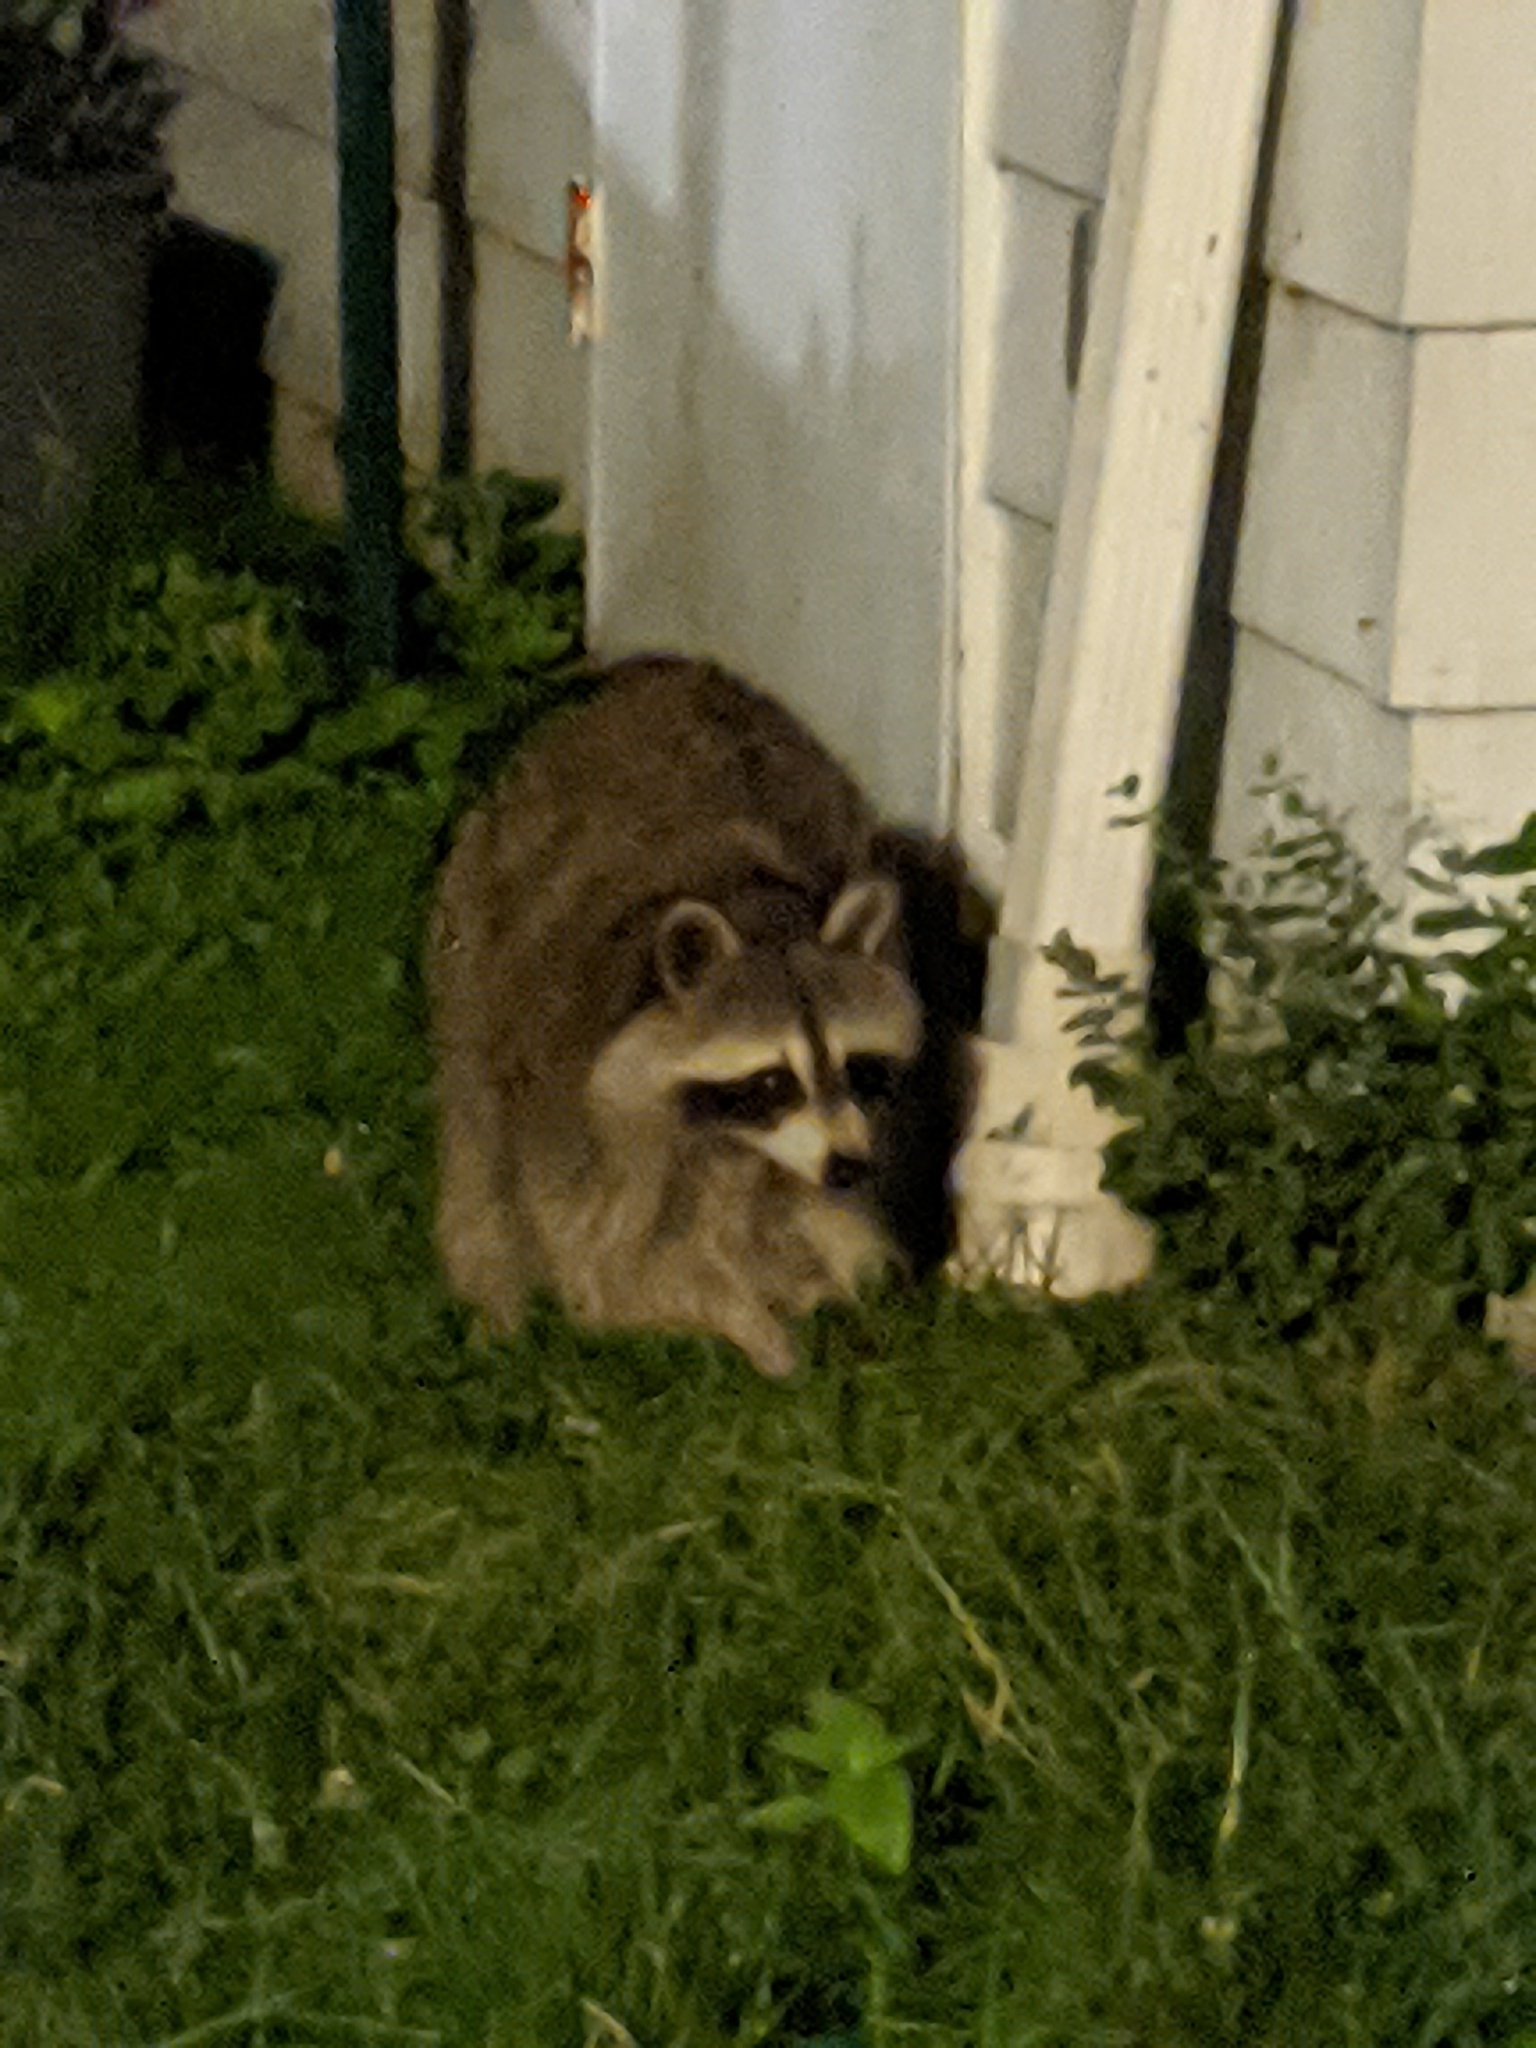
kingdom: Animalia
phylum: Chordata
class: Mammalia
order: Carnivora
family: Procyonidae
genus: Procyon
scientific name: Procyon lotor
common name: Raccoon
